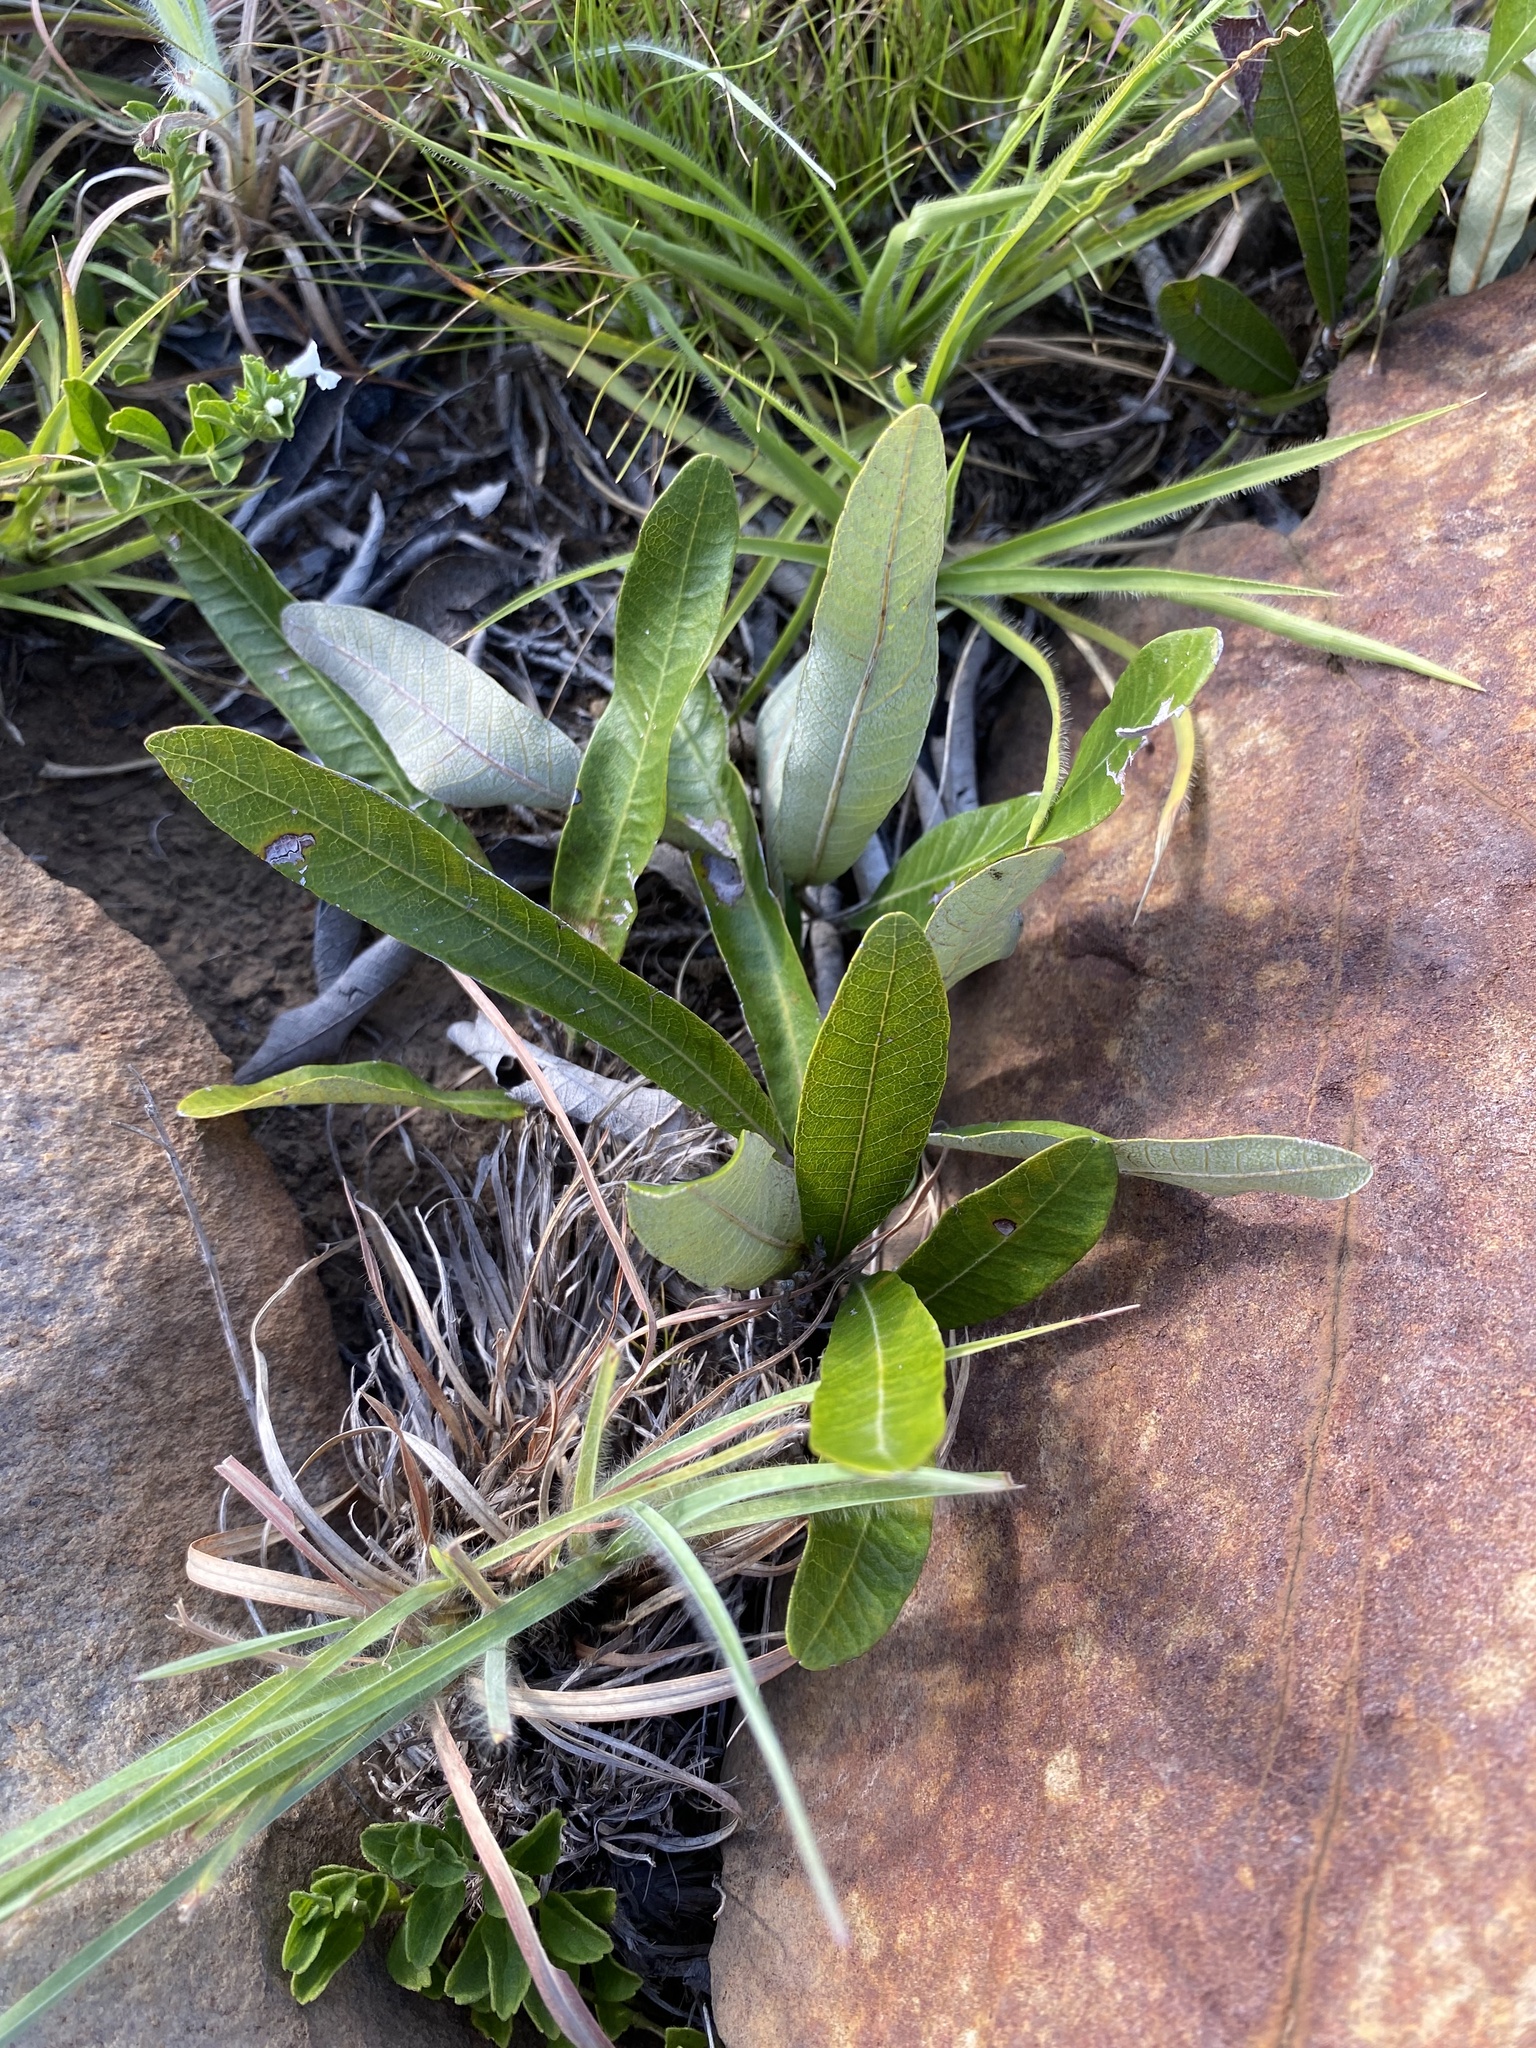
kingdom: Plantae
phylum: Tracheophyta
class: Magnoliopsida
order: Malpighiales
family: Chrysobalanaceae
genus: Parinari
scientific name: Parinari capensis
